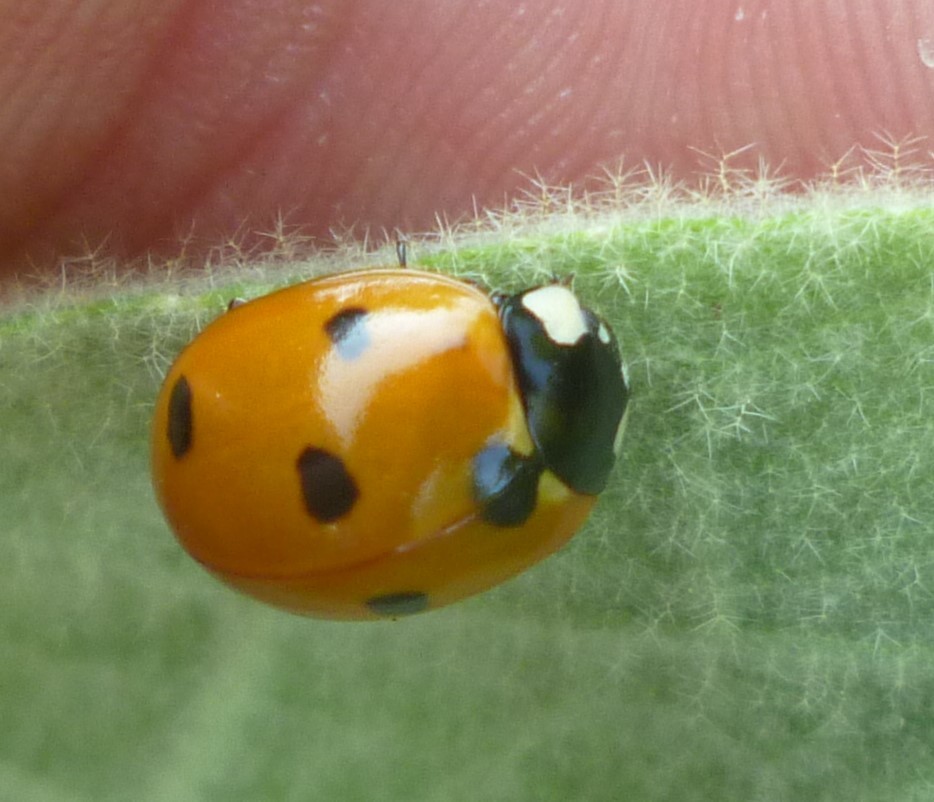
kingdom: Animalia
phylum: Arthropoda
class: Insecta
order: Coleoptera
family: Coccinellidae
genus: Coccinella
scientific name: Coccinella septempunctata
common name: Sevenspotted lady beetle
